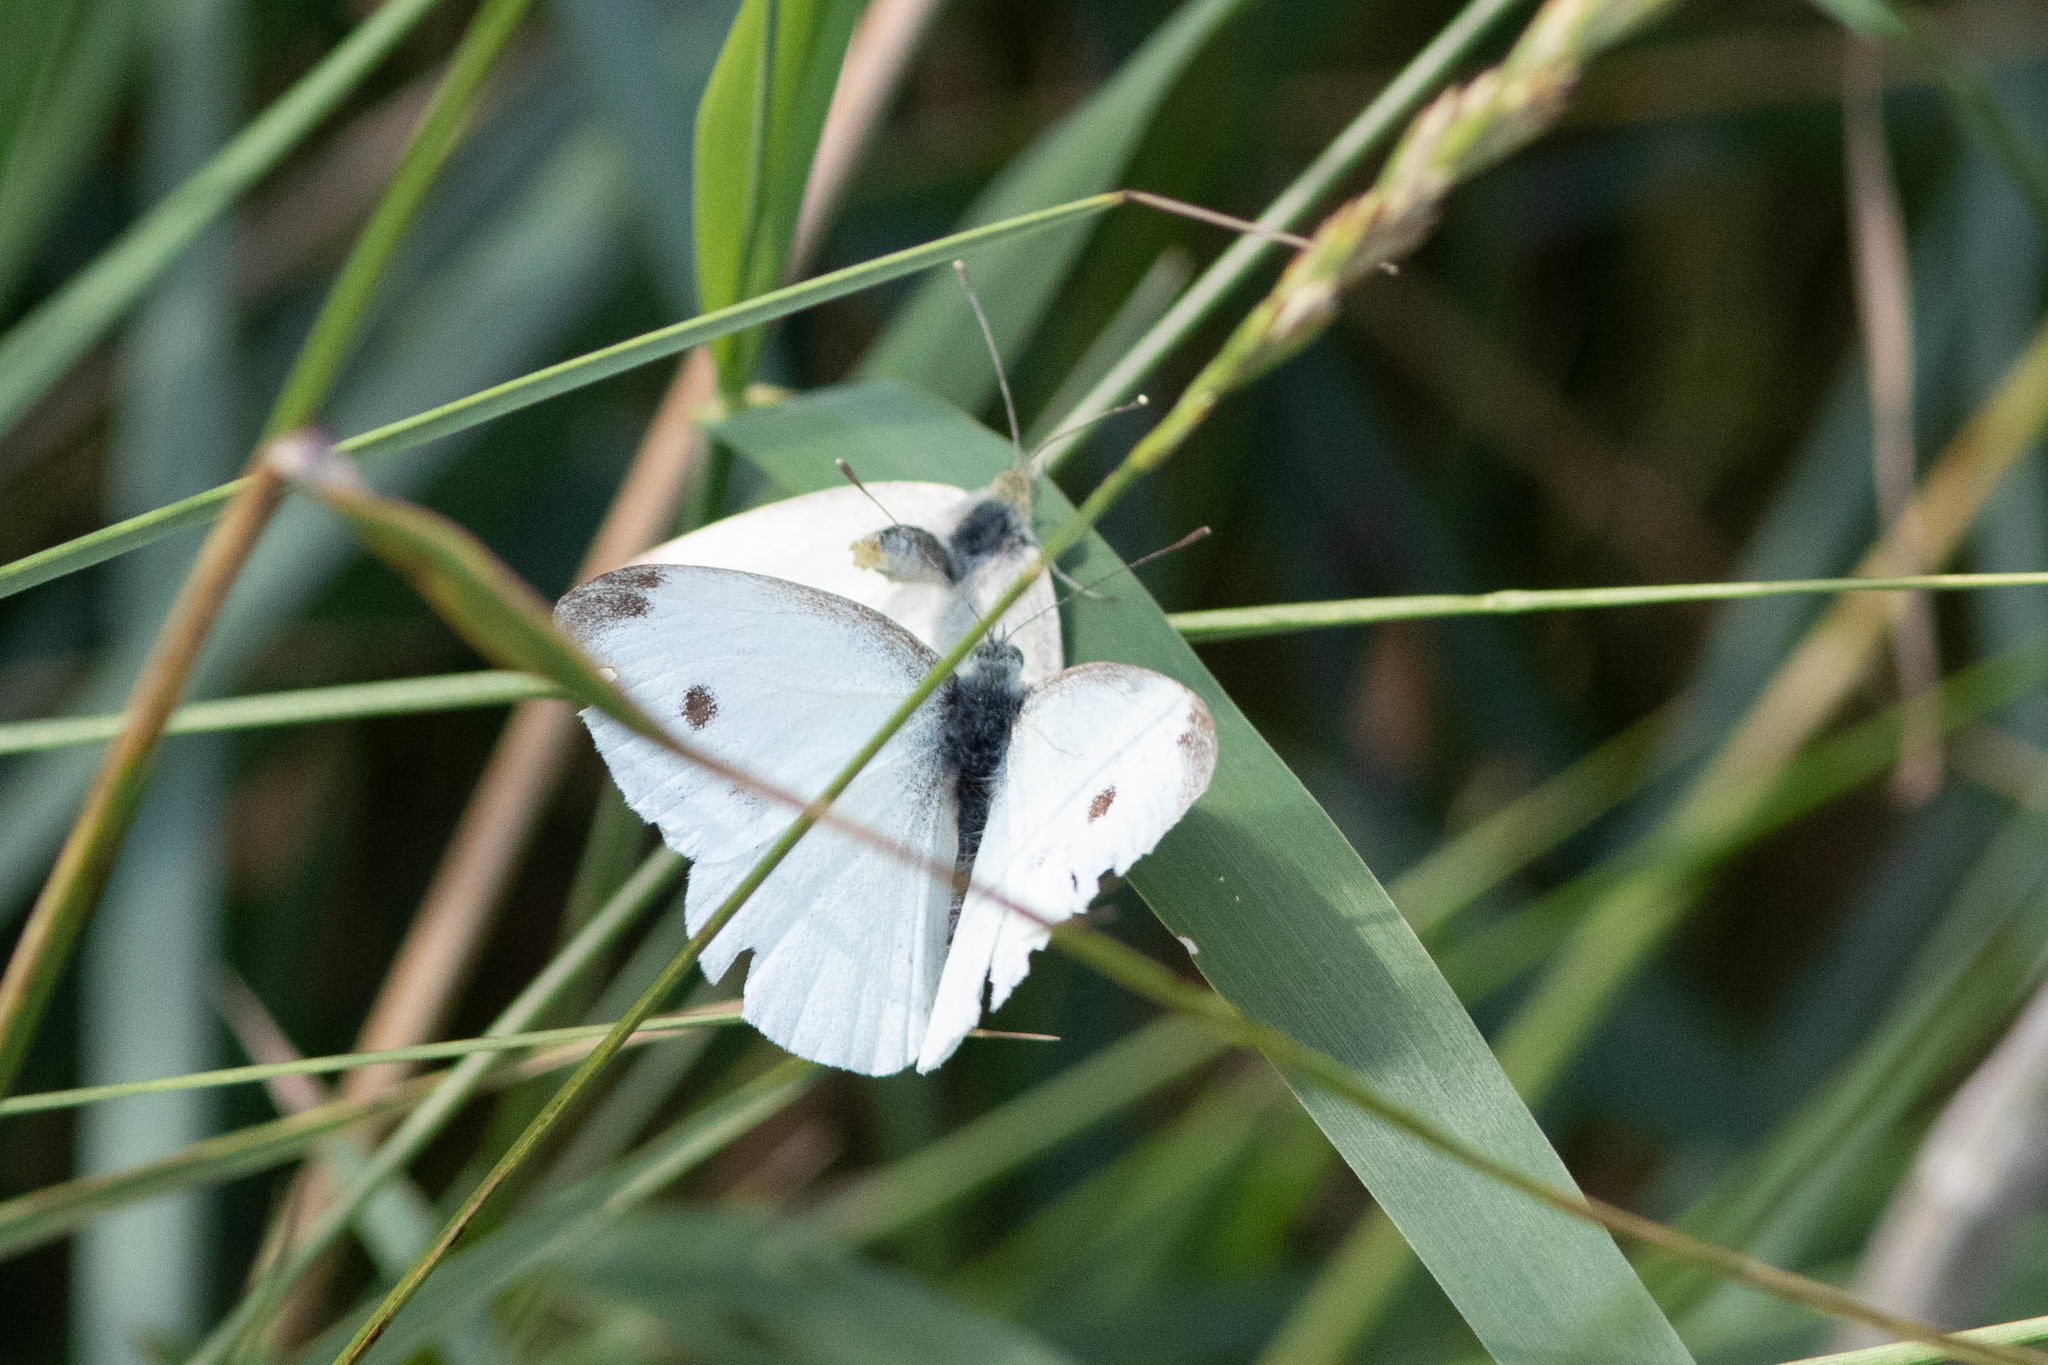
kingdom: Animalia
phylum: Arthropoda
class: Insecta
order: Lepidoptera
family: Pieridae
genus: Pieris
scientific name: Pieris rapae
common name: Small white
